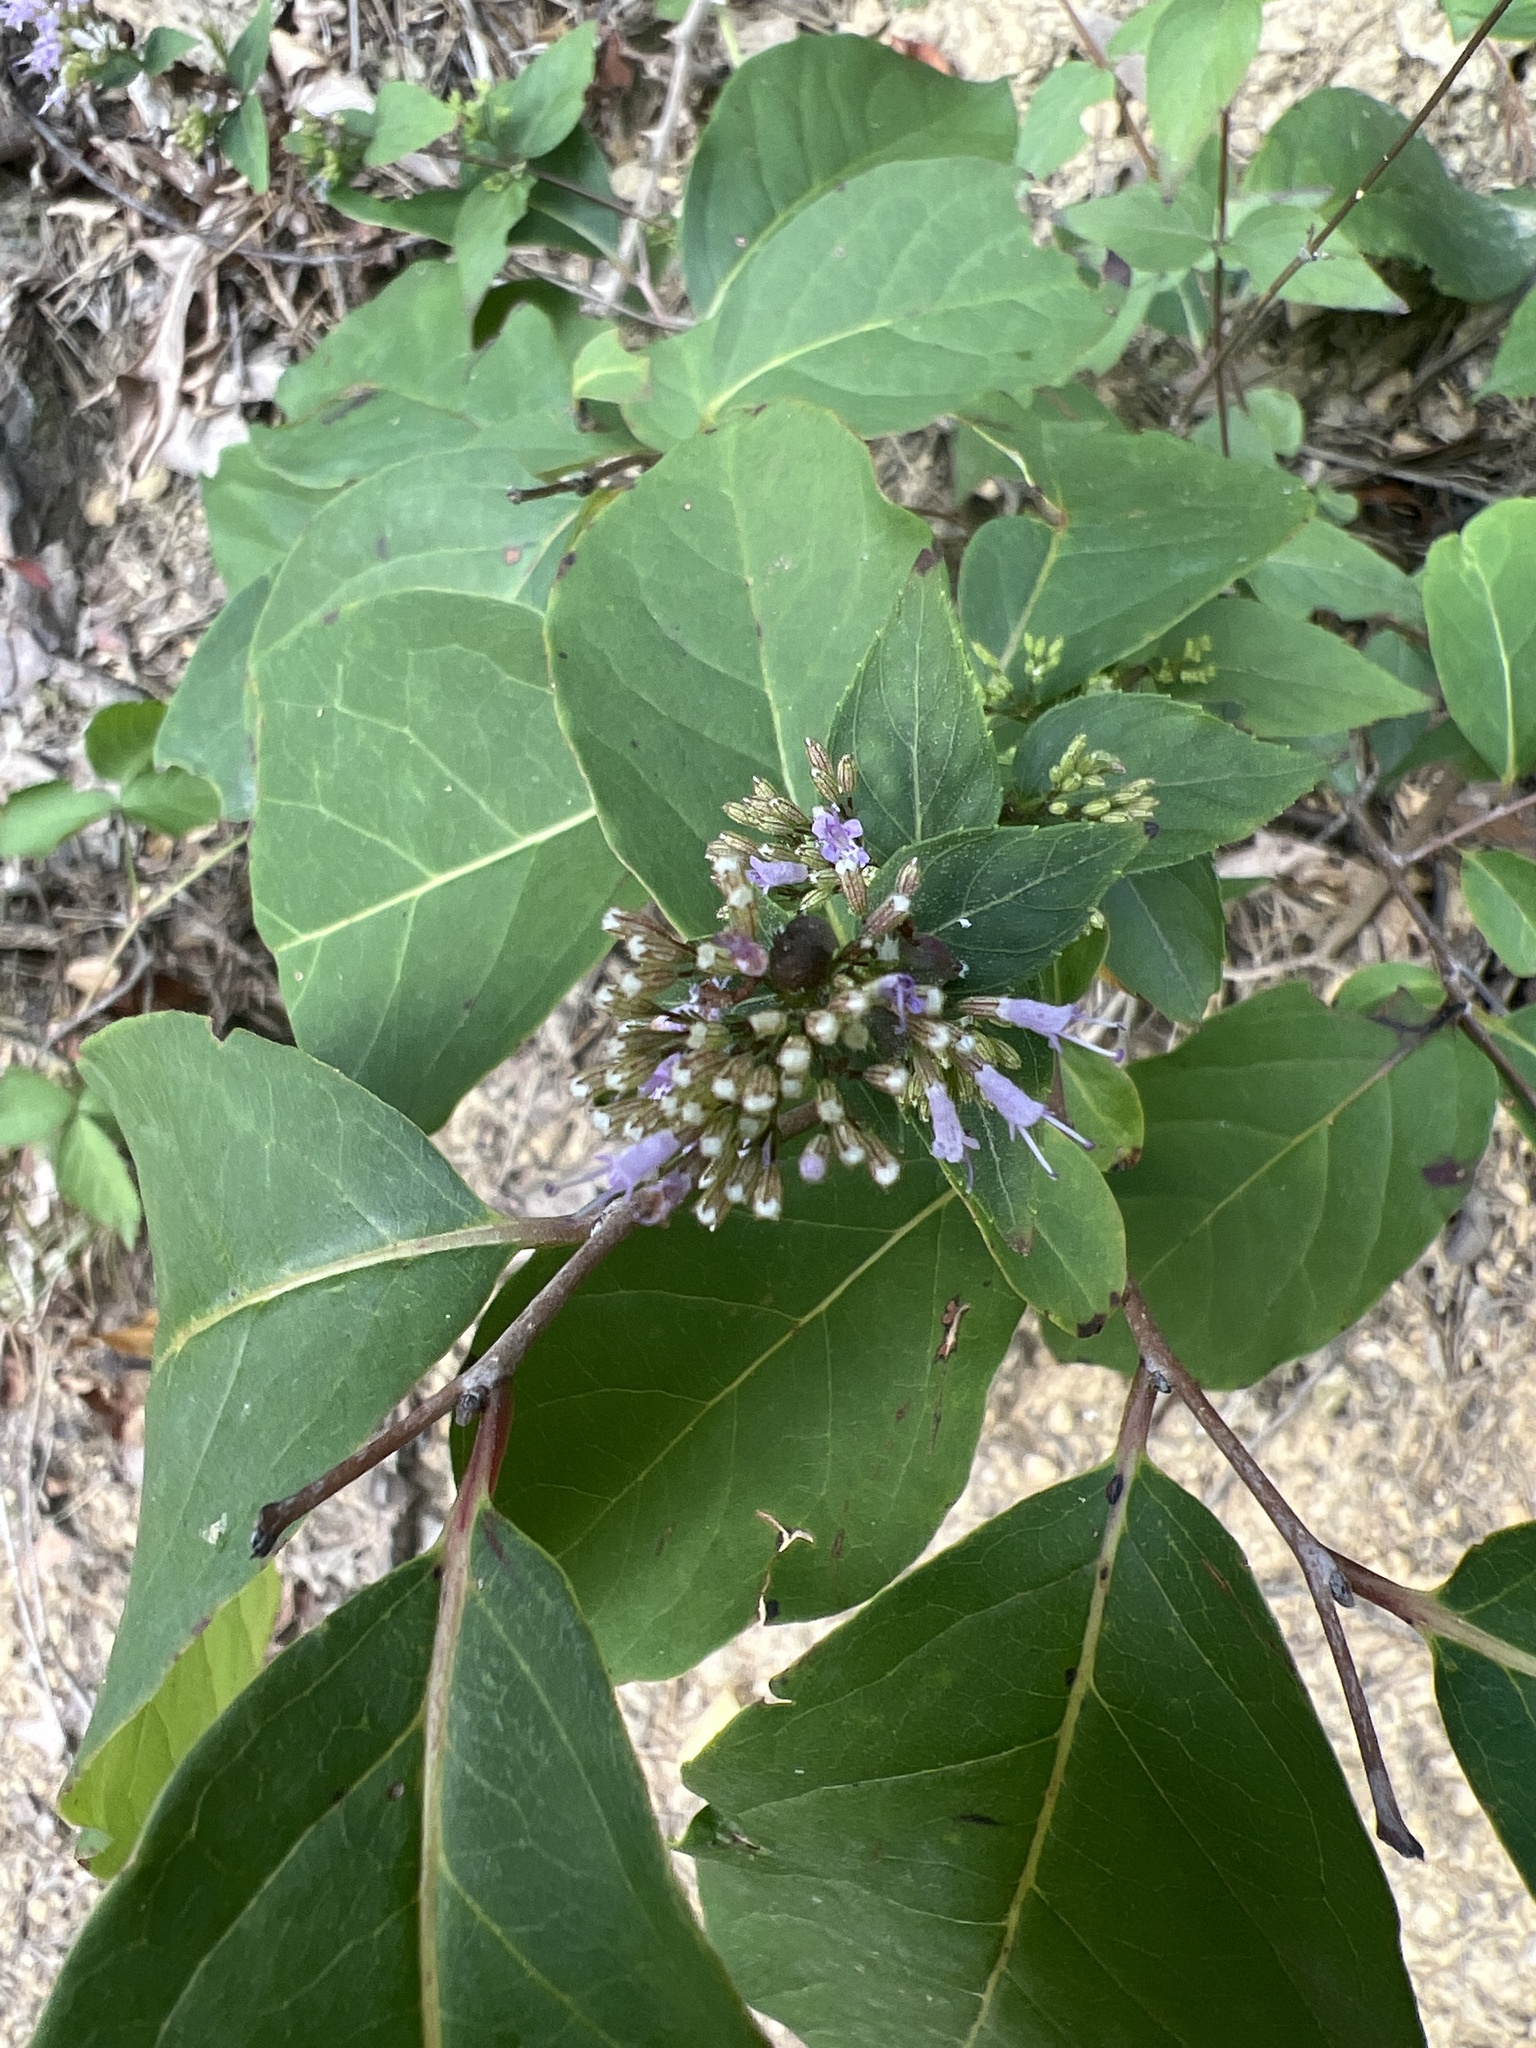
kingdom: Plantae
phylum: Tracheophyta
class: Magnoliopsida
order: Lamiales
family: Lamiaceae
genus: Cunila
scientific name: Cunila origanoides
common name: American dittany
